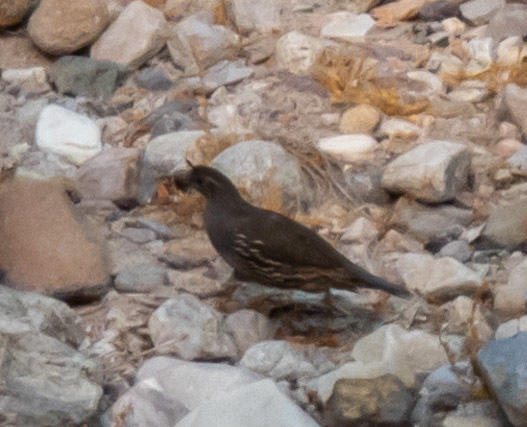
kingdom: Animalia
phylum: Chordata
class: Aves
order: Galliformes
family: Odontophoridae
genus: Callipepla
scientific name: Callipepla californica
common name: California quail
